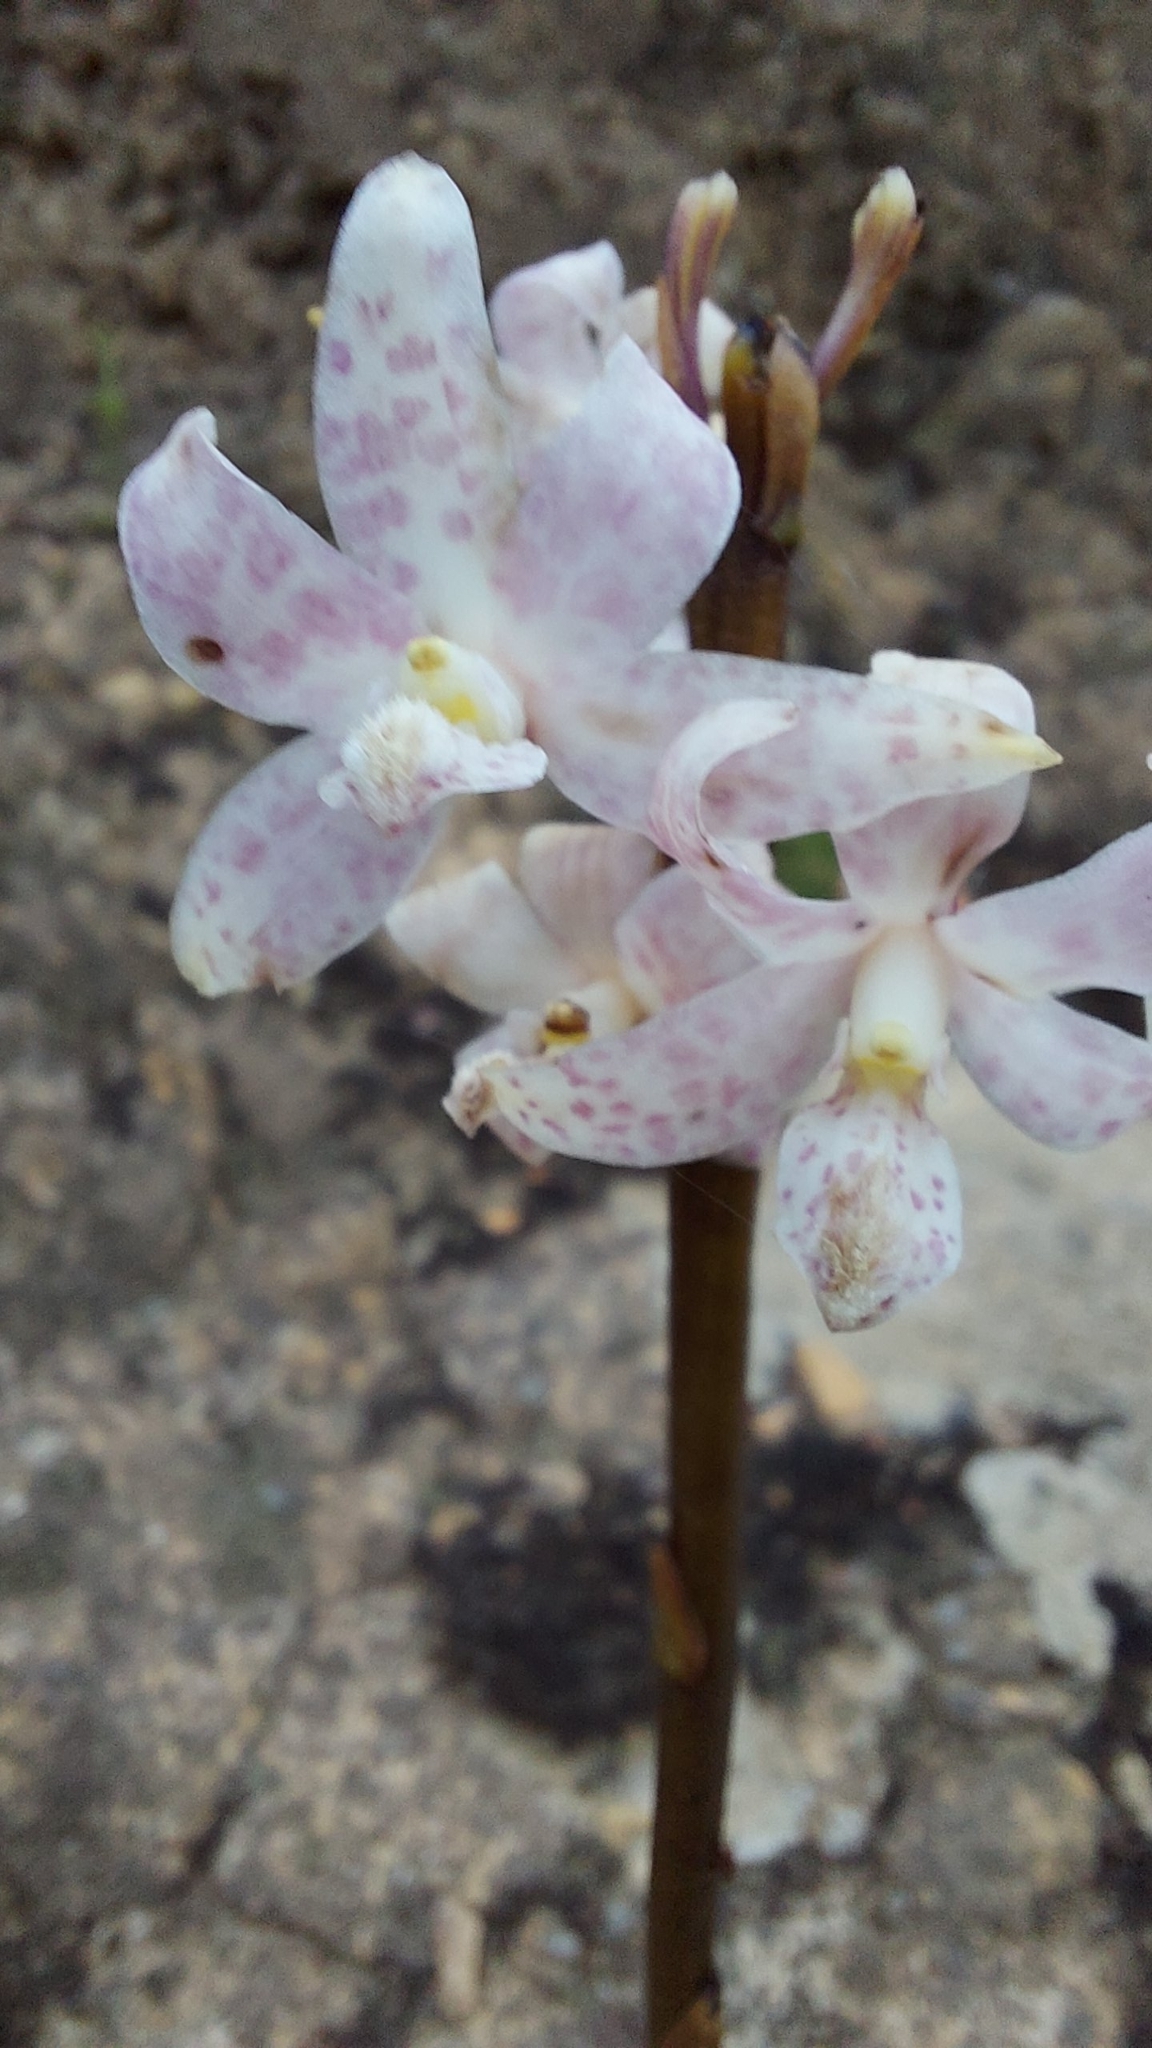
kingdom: Plantae
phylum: Tracheophyta
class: Liliopsida
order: Asparagales
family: Orchidaceae
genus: Dipodium
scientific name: Dipodium pardalinum
